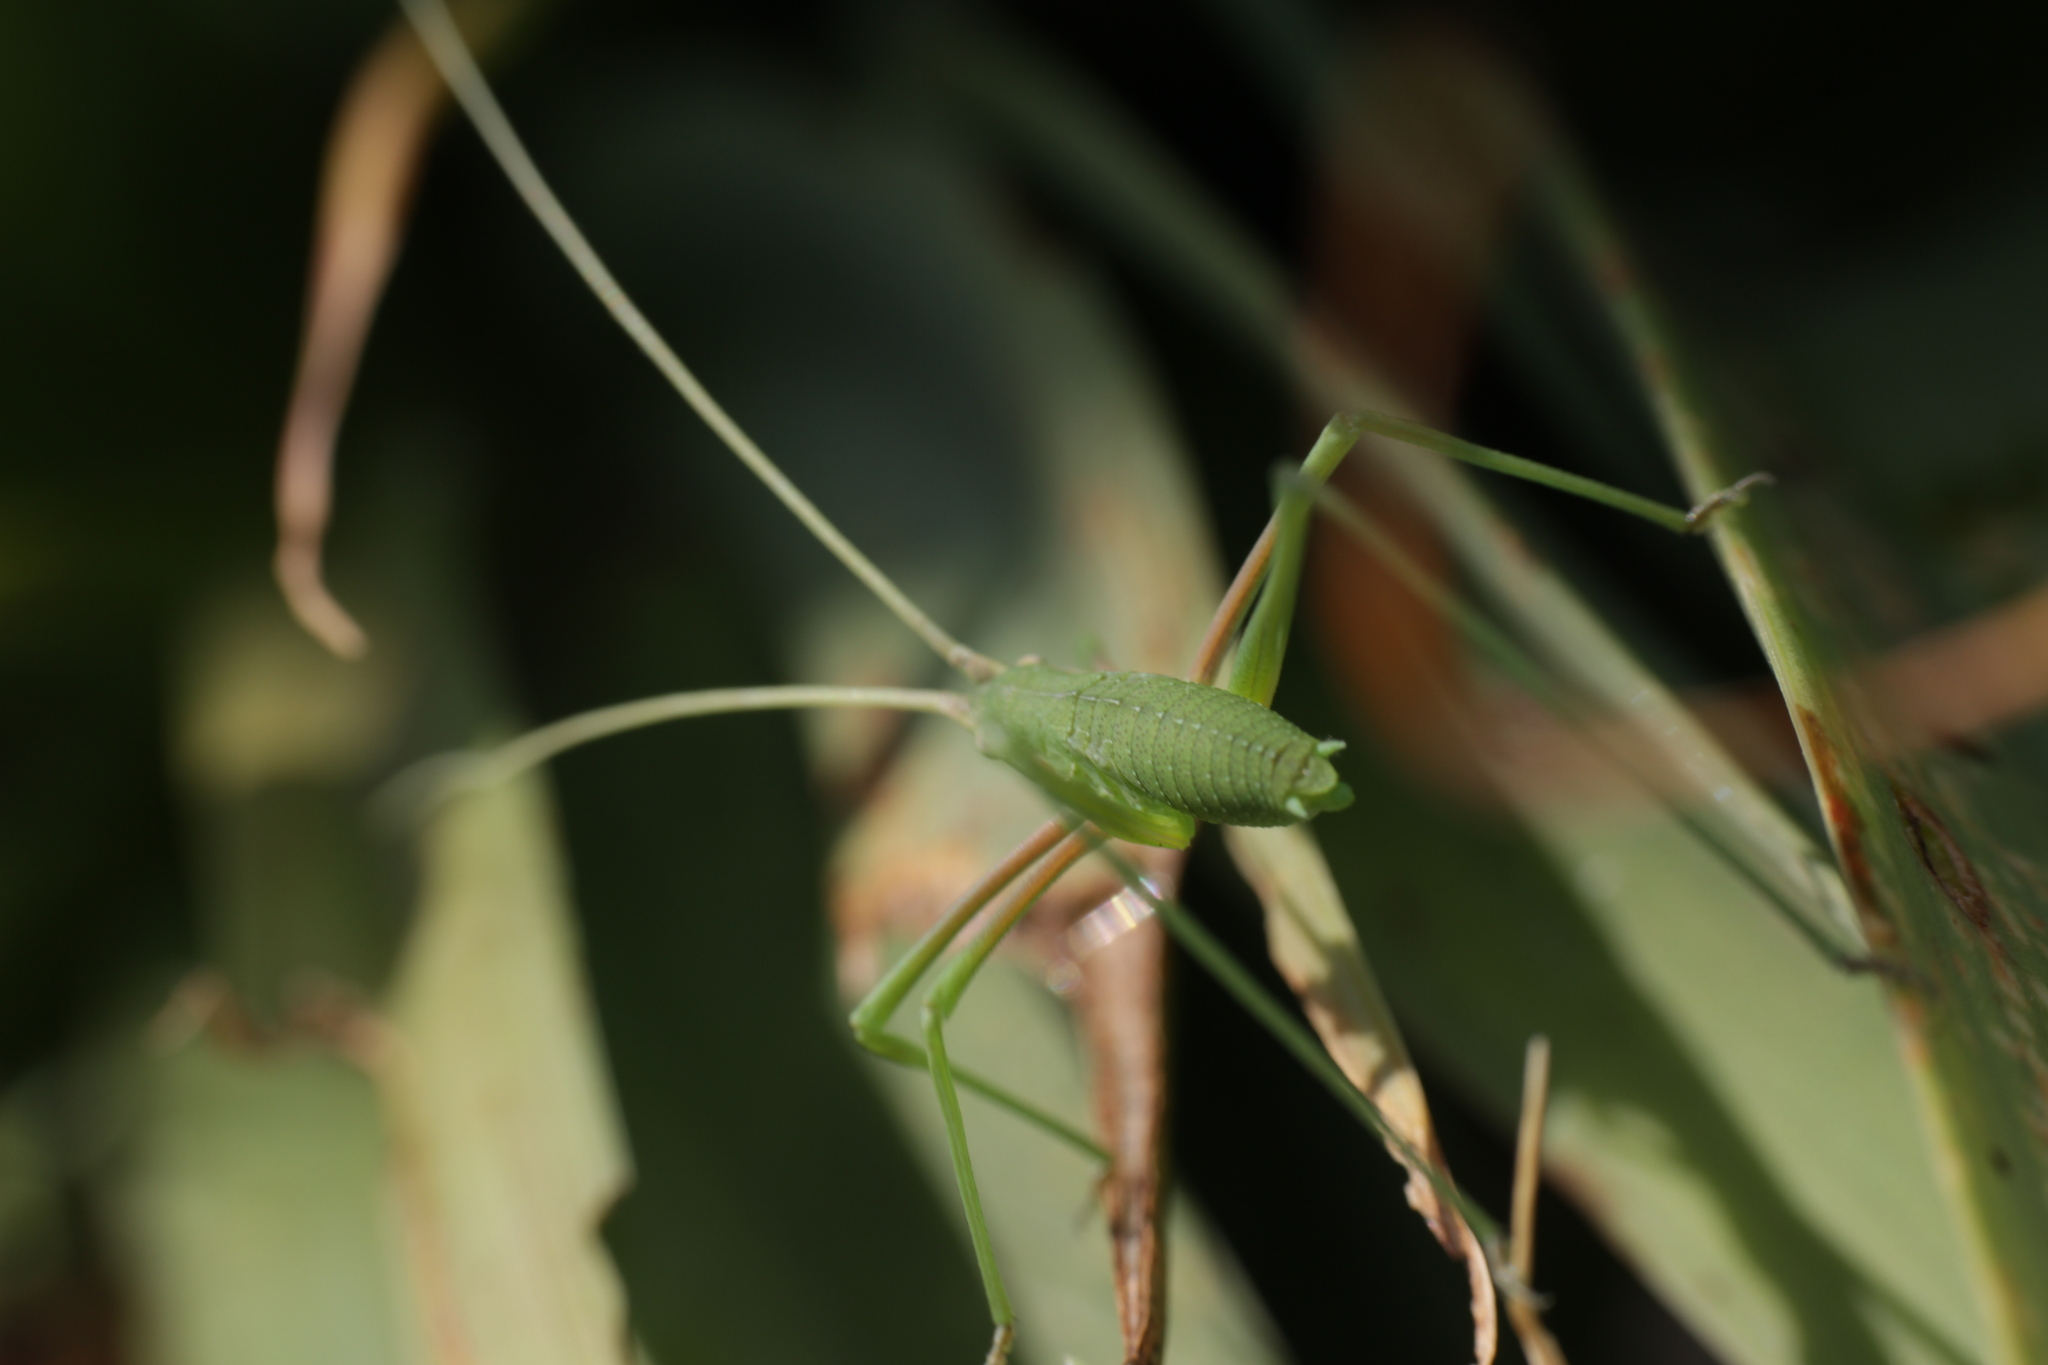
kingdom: Animalia
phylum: Arthropoda
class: Insecta
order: Orthoptera
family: Tettigoniidae
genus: Acrometopa
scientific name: Acrometopa macropoda
